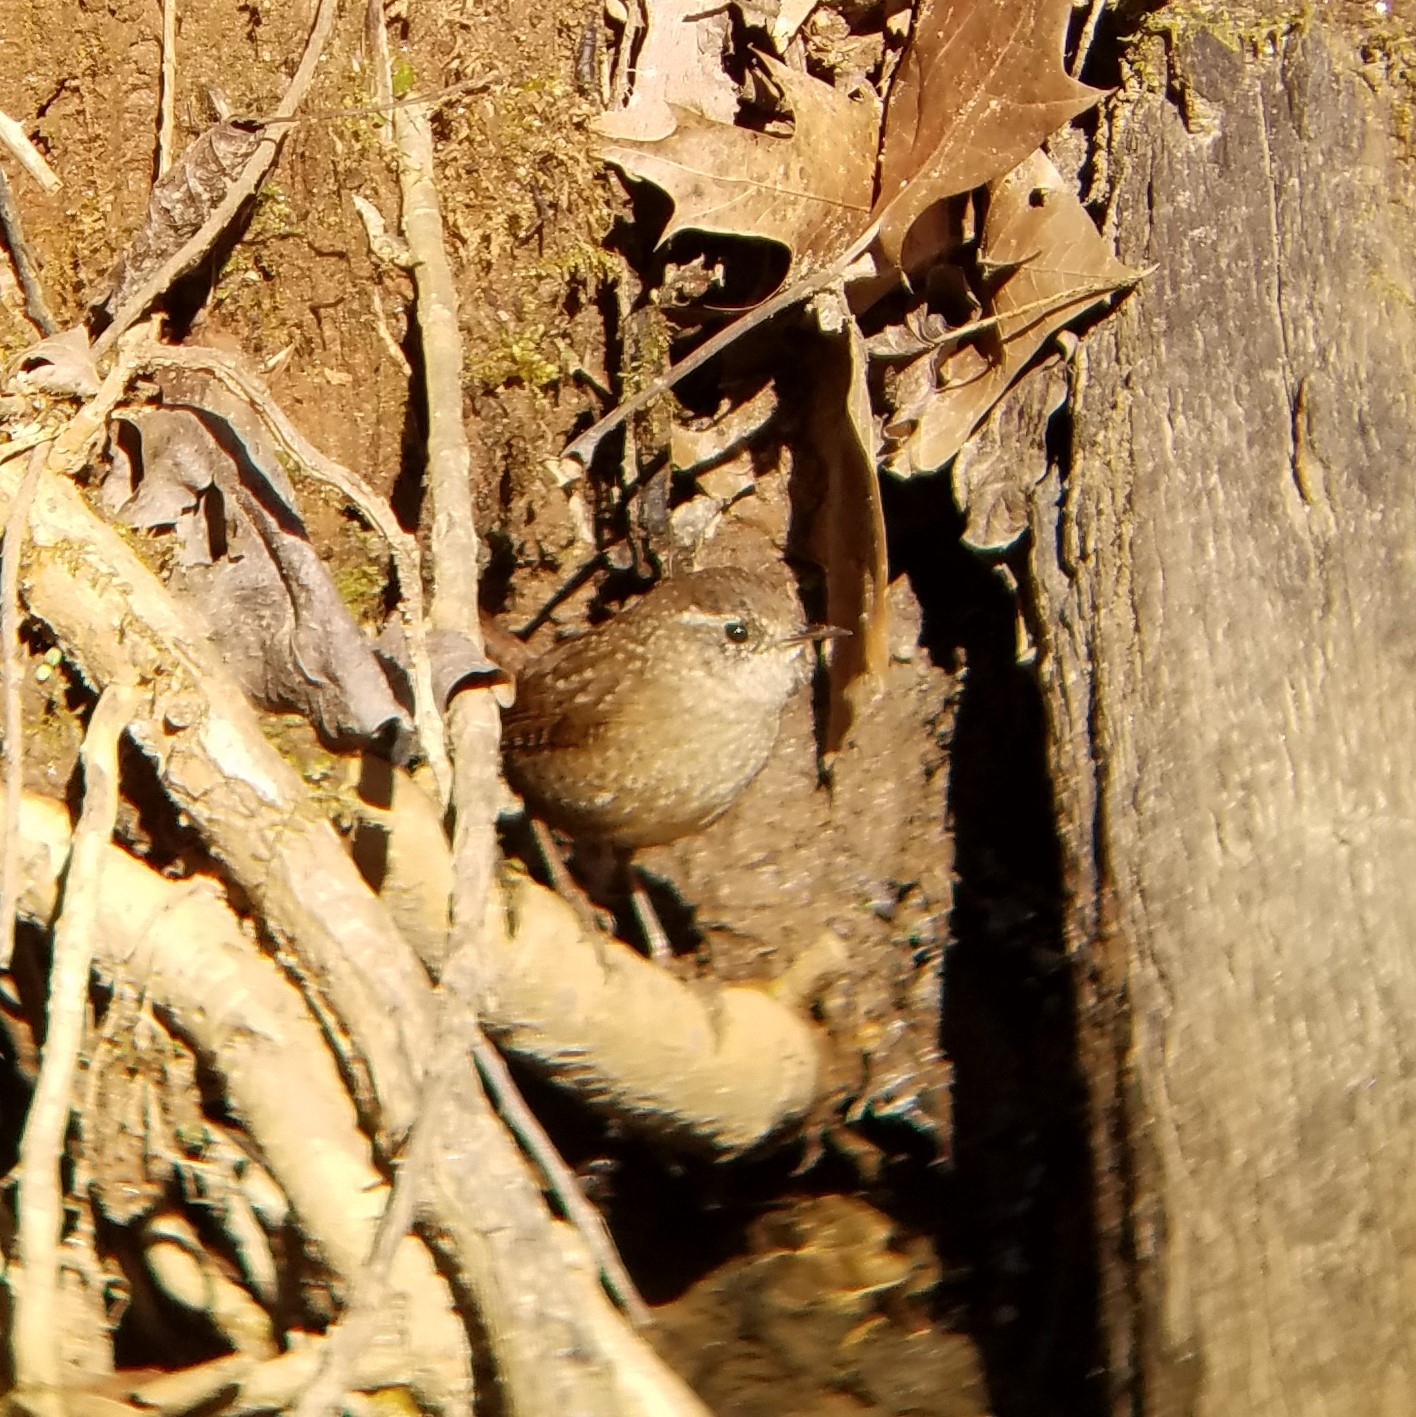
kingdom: Animalia
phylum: Chordata
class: Aves
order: Passeriformes
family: Troglodytidae
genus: Troglodytes
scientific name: Troglodytes hiemalis
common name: Winter wren
